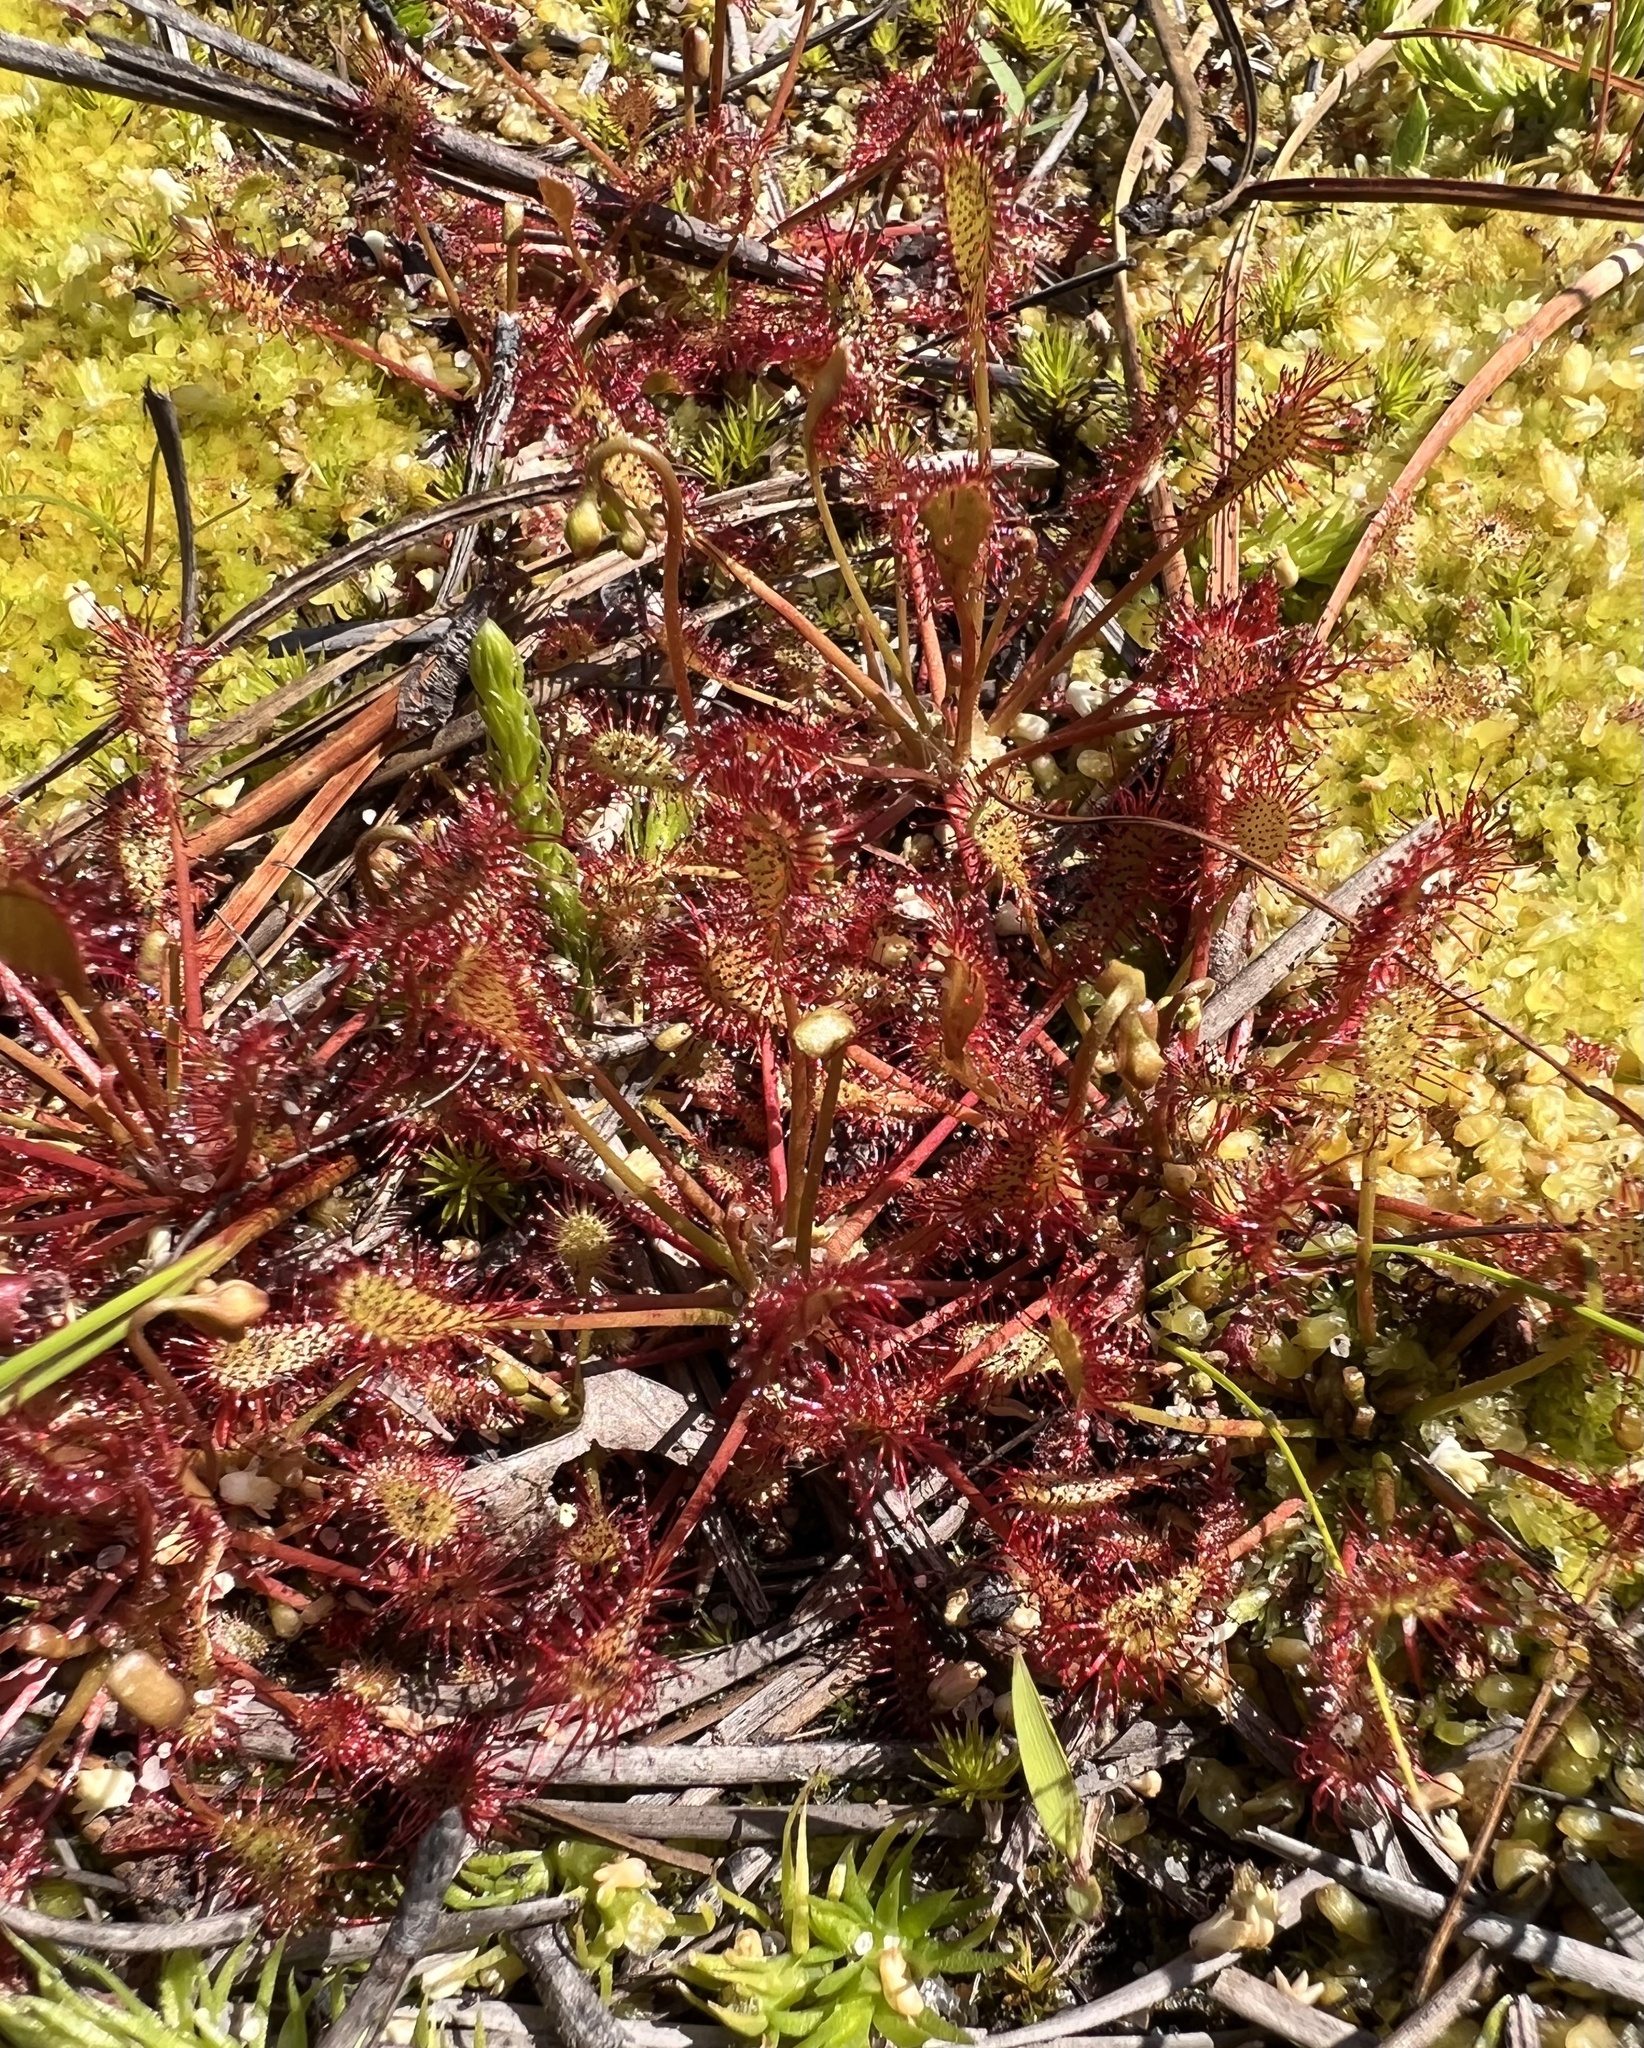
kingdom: Plantae
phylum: Tracheophyta
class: Magnoliopsida
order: Caryophyllales
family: Droseraceae
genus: Drosera
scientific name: Drosera intermedia
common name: Oblong-leaved sundew
